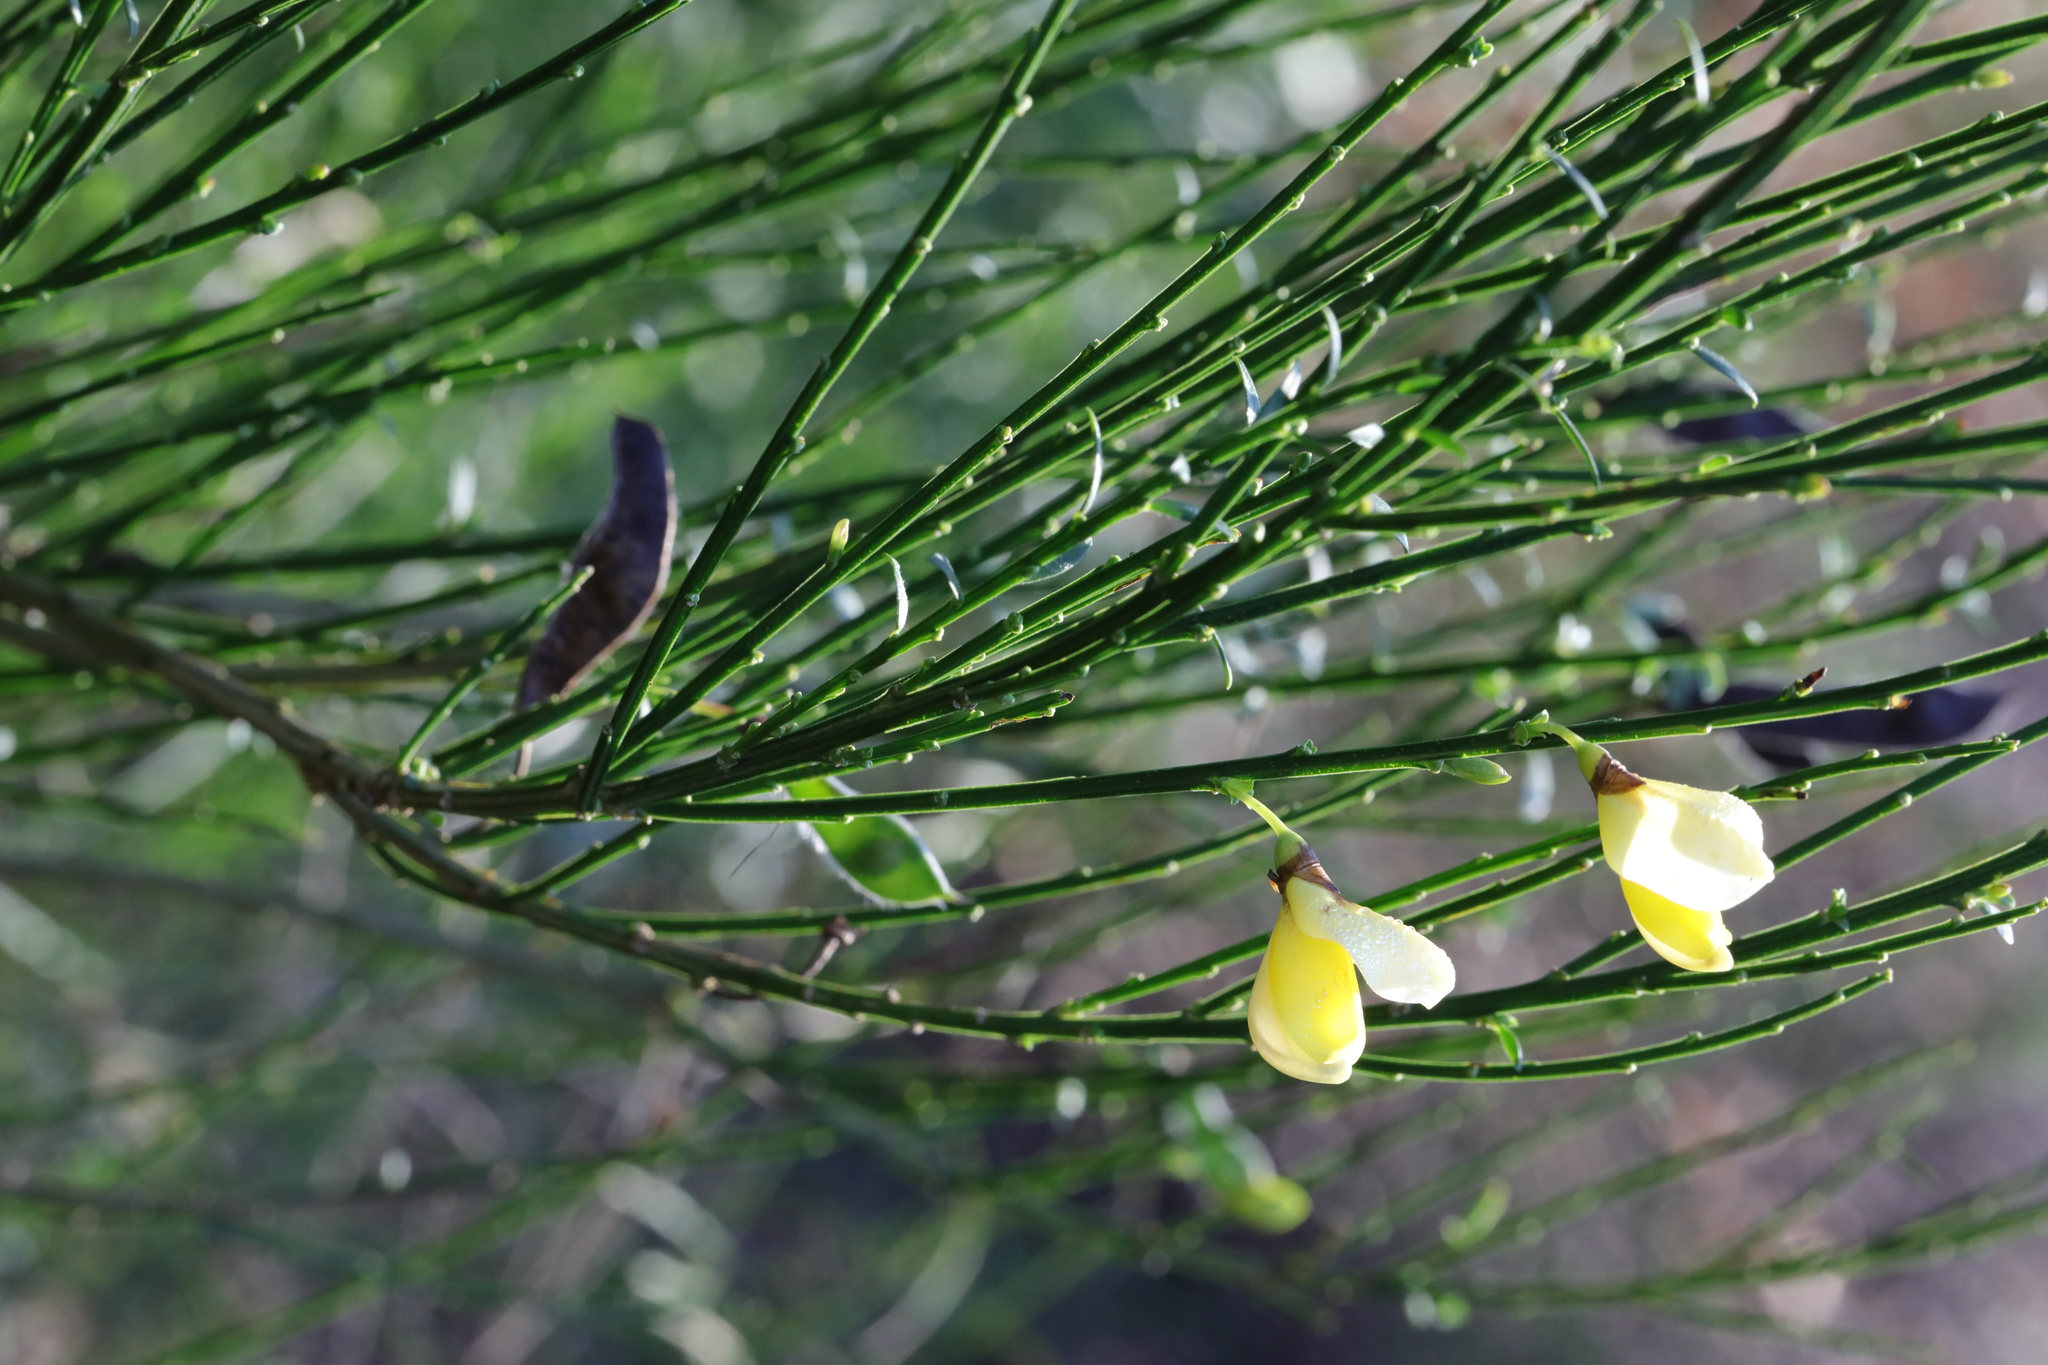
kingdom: Plantae
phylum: Tracheophyta
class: Magnoliopsida
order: Fabales
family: Fabaceae
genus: Cytisus
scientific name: Cytisus scoparius
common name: Scotch broom
